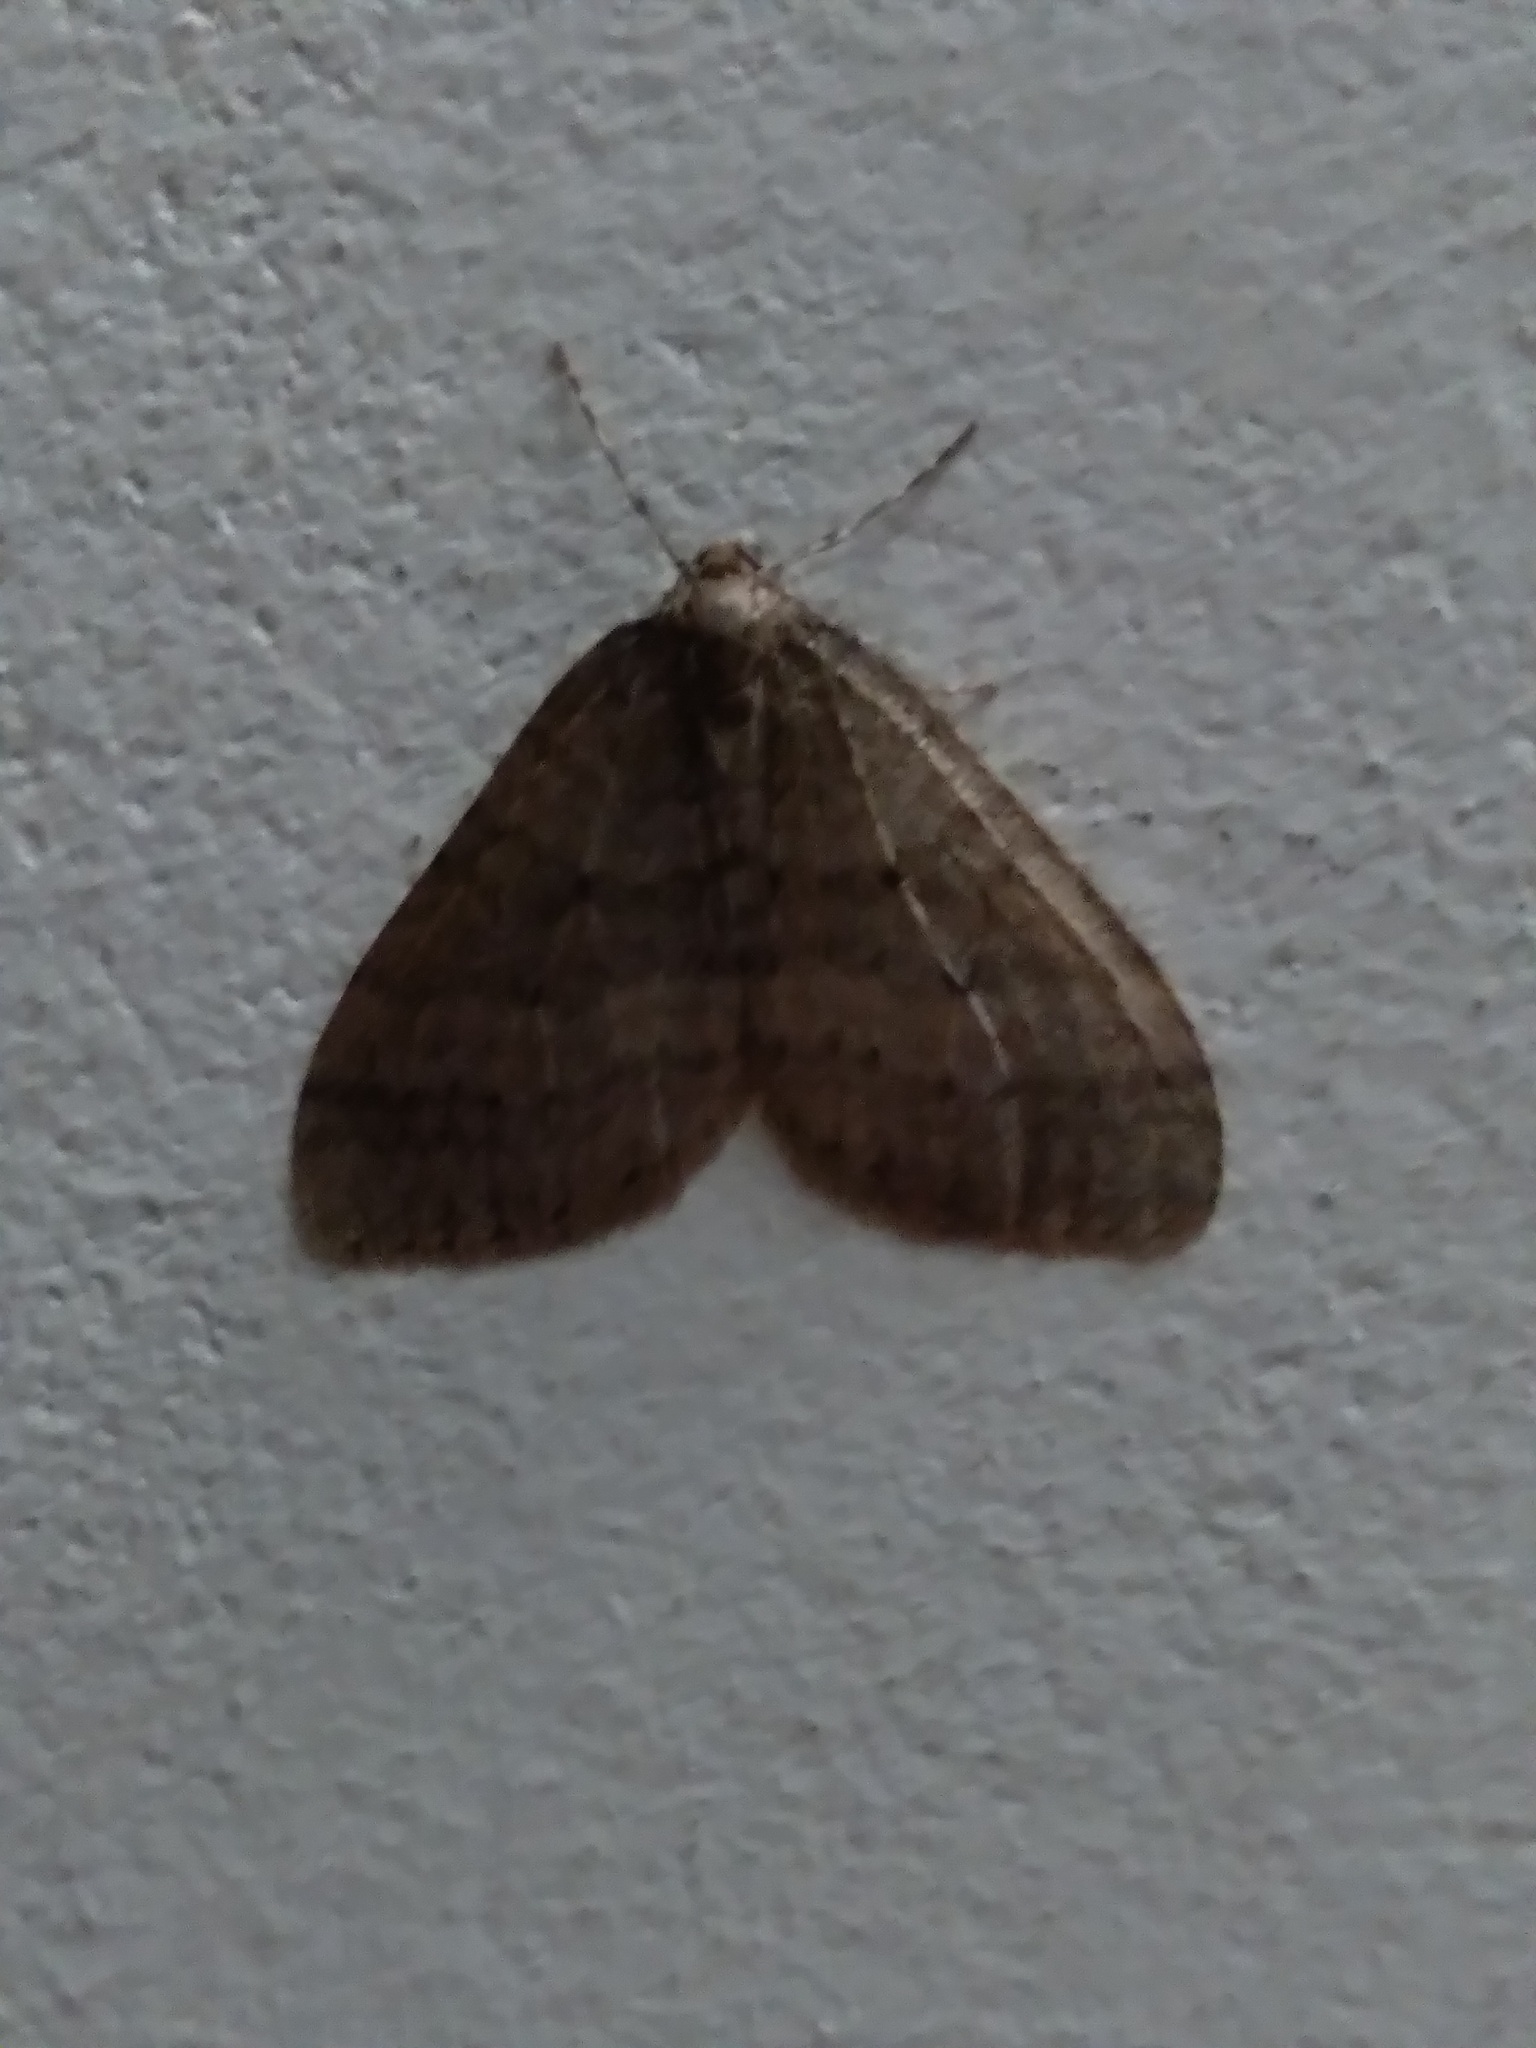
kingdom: Animalia
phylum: Arthropoda
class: Insecta
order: Lepidoptera
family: Geometridae
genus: Operophtera
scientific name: Operophtera brumata
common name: Winter moth
